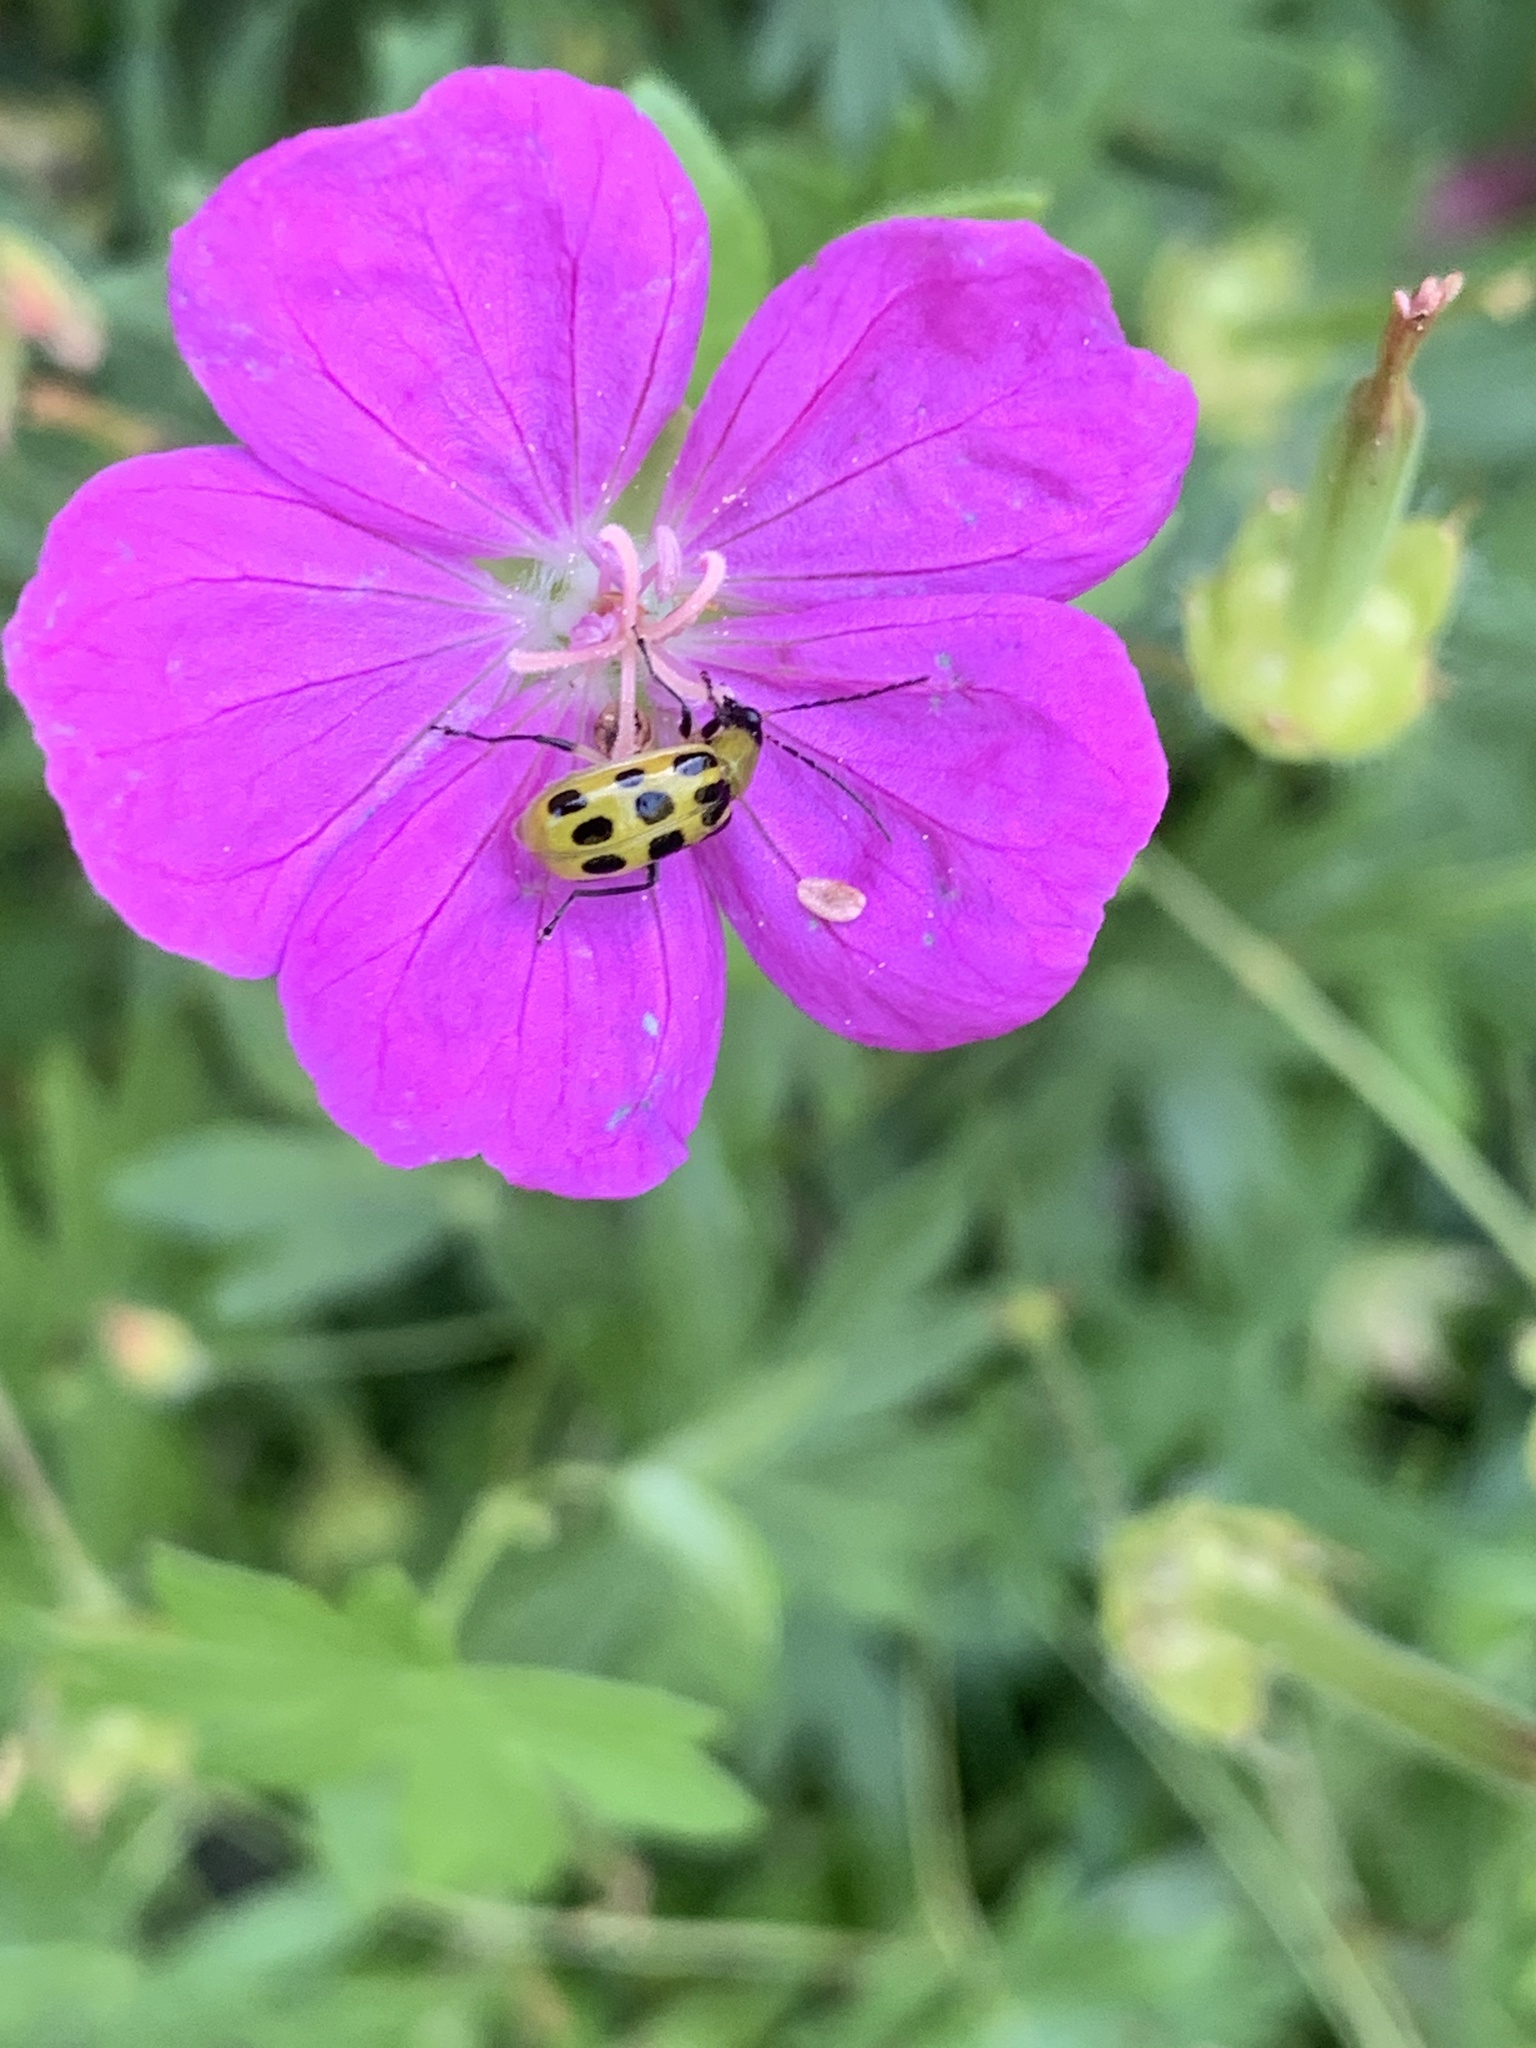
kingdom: Animalia
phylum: Arthropoda
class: Insecta
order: Coleoptera
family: Chrysomelidae
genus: Diabrotica
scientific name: Diabrotica undecimpunctata
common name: Spotted cucumber beetle
